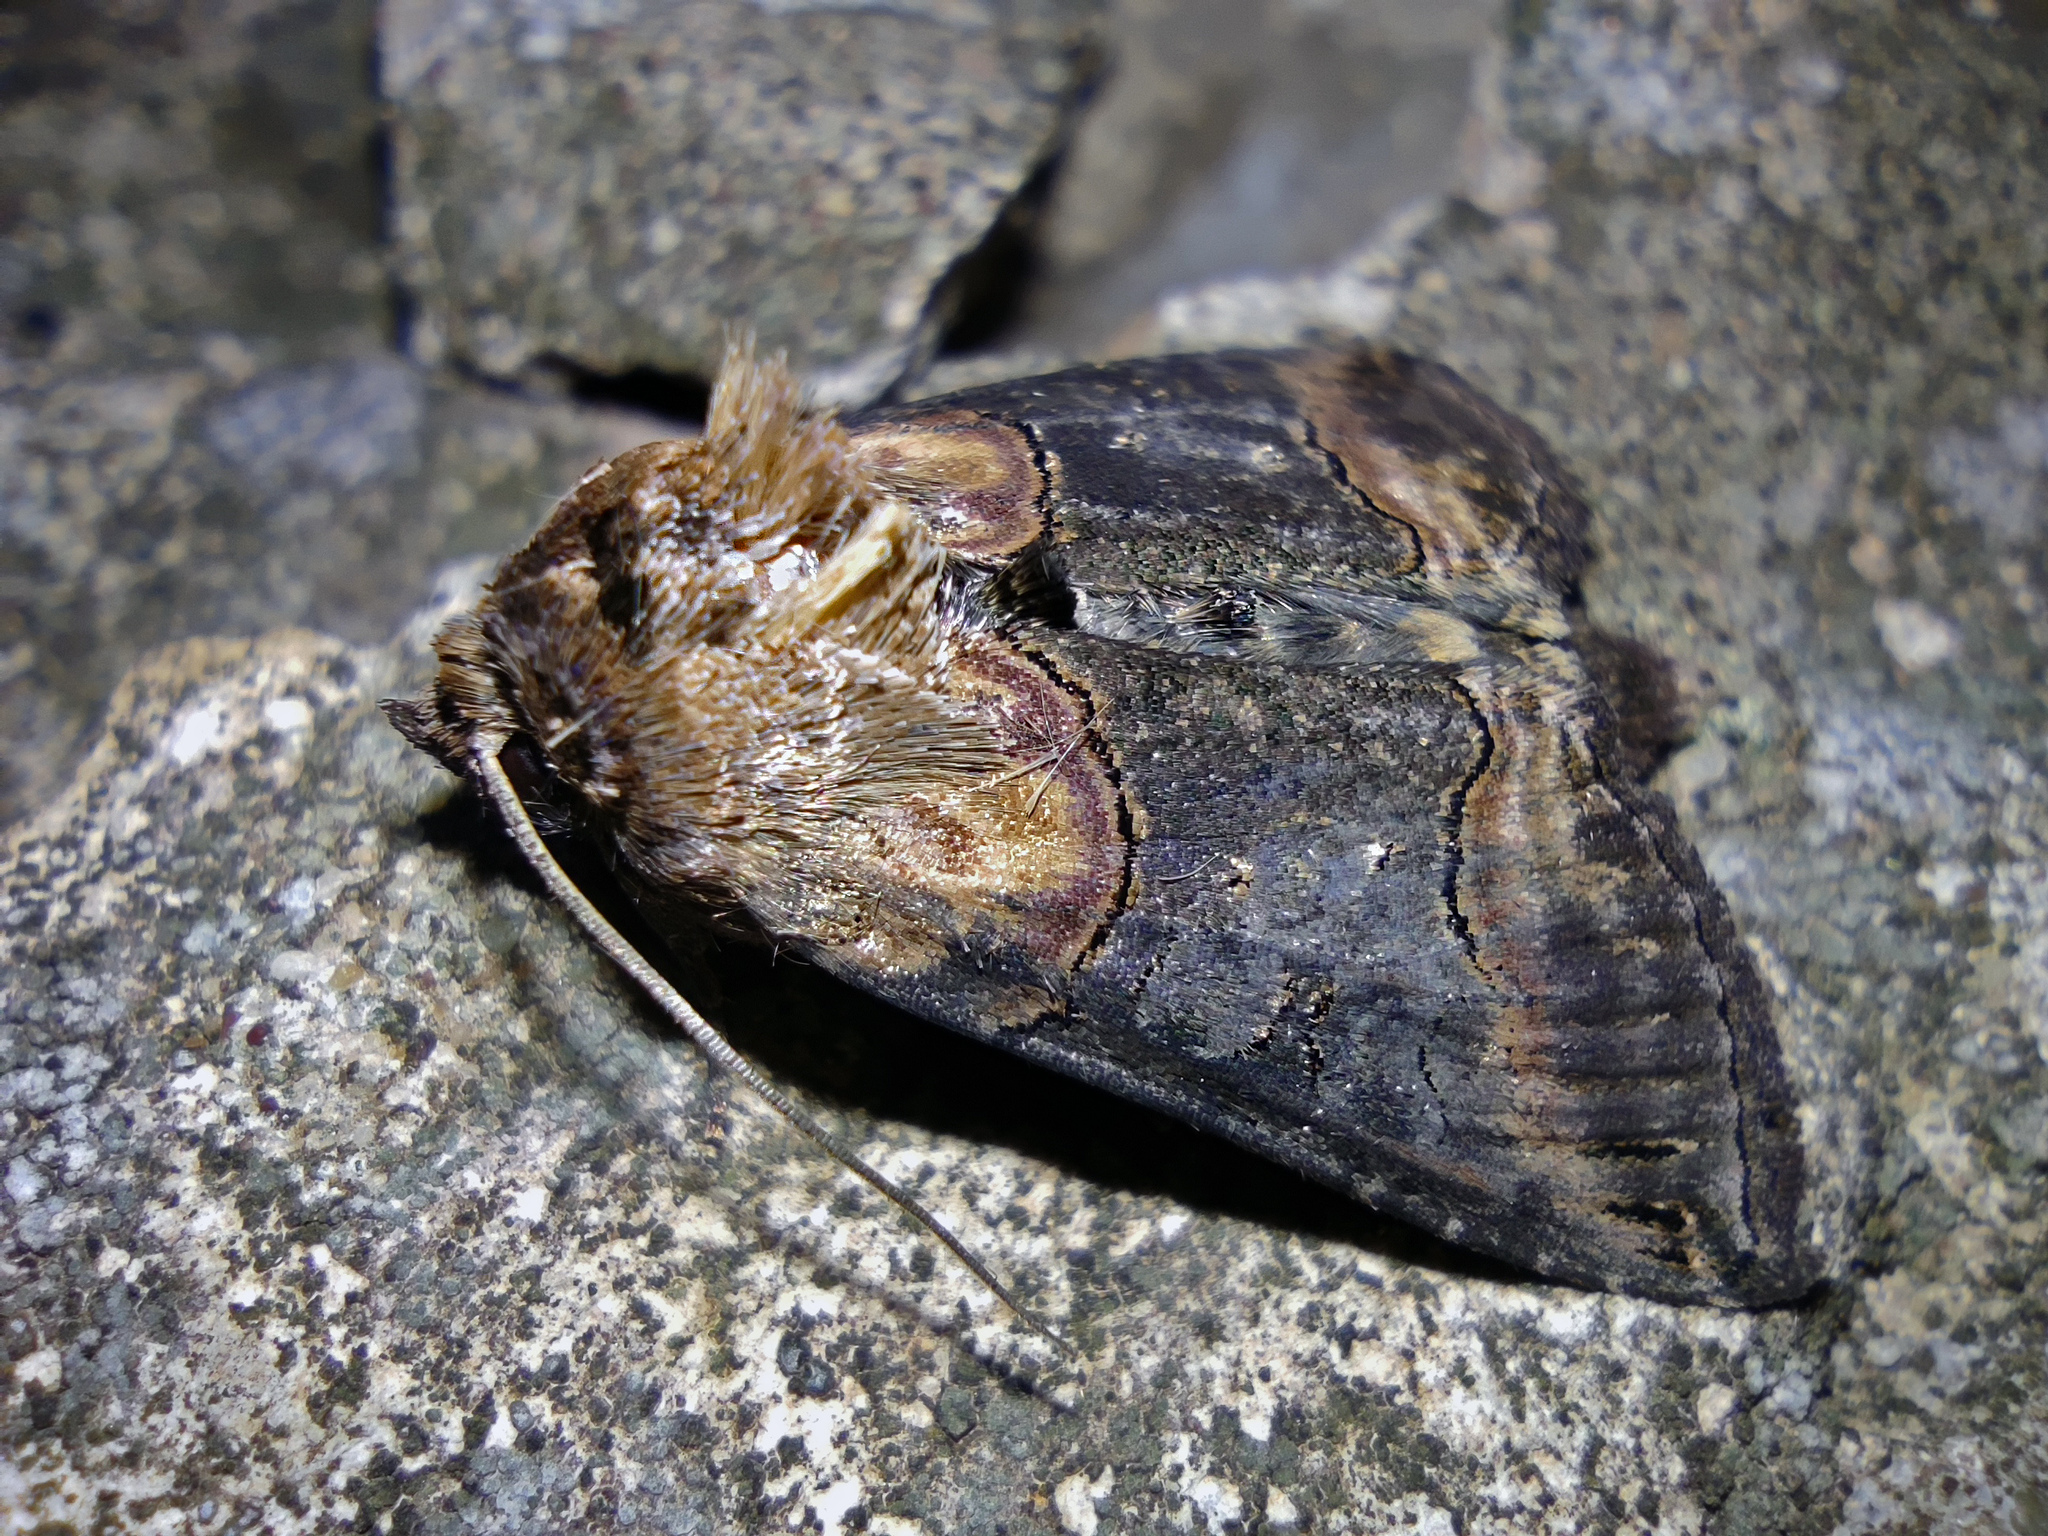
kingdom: Animalia
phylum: Arthropoda
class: Insecta
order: Lepidoptera
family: Noctuidae
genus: Abrostola
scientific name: Abrostola triplasia
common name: Dark spectacle
